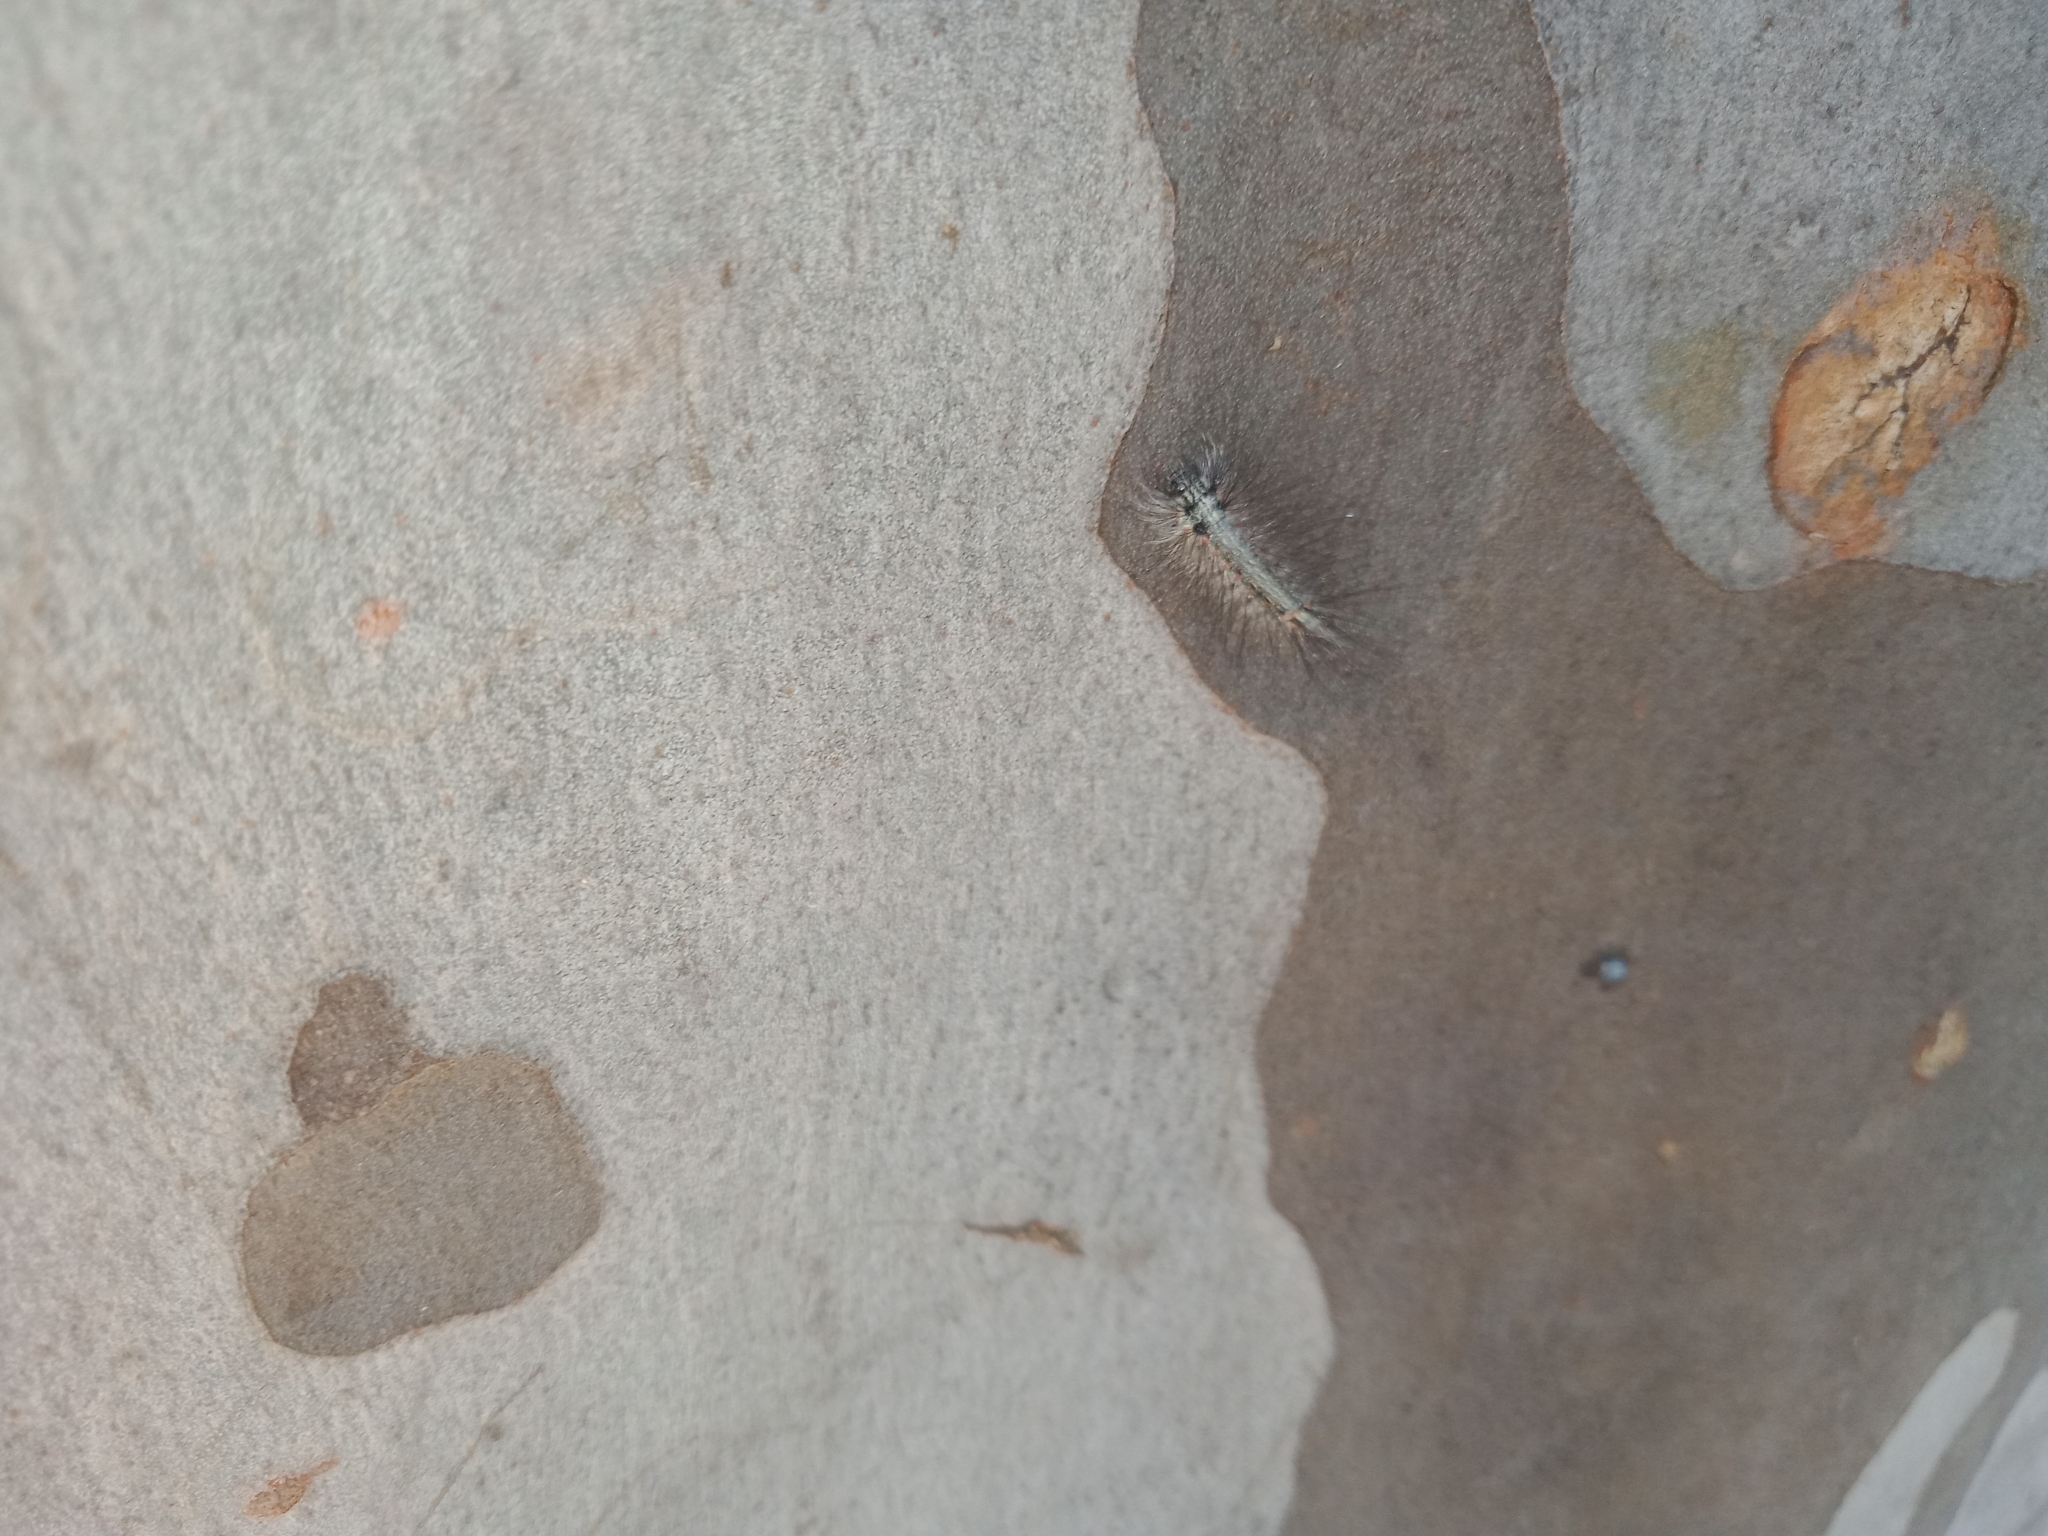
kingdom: Animalia
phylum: Arthropoda
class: Insecta
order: Lepidoptera
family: Nolidae
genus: Uraba
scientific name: Uraba lugens
